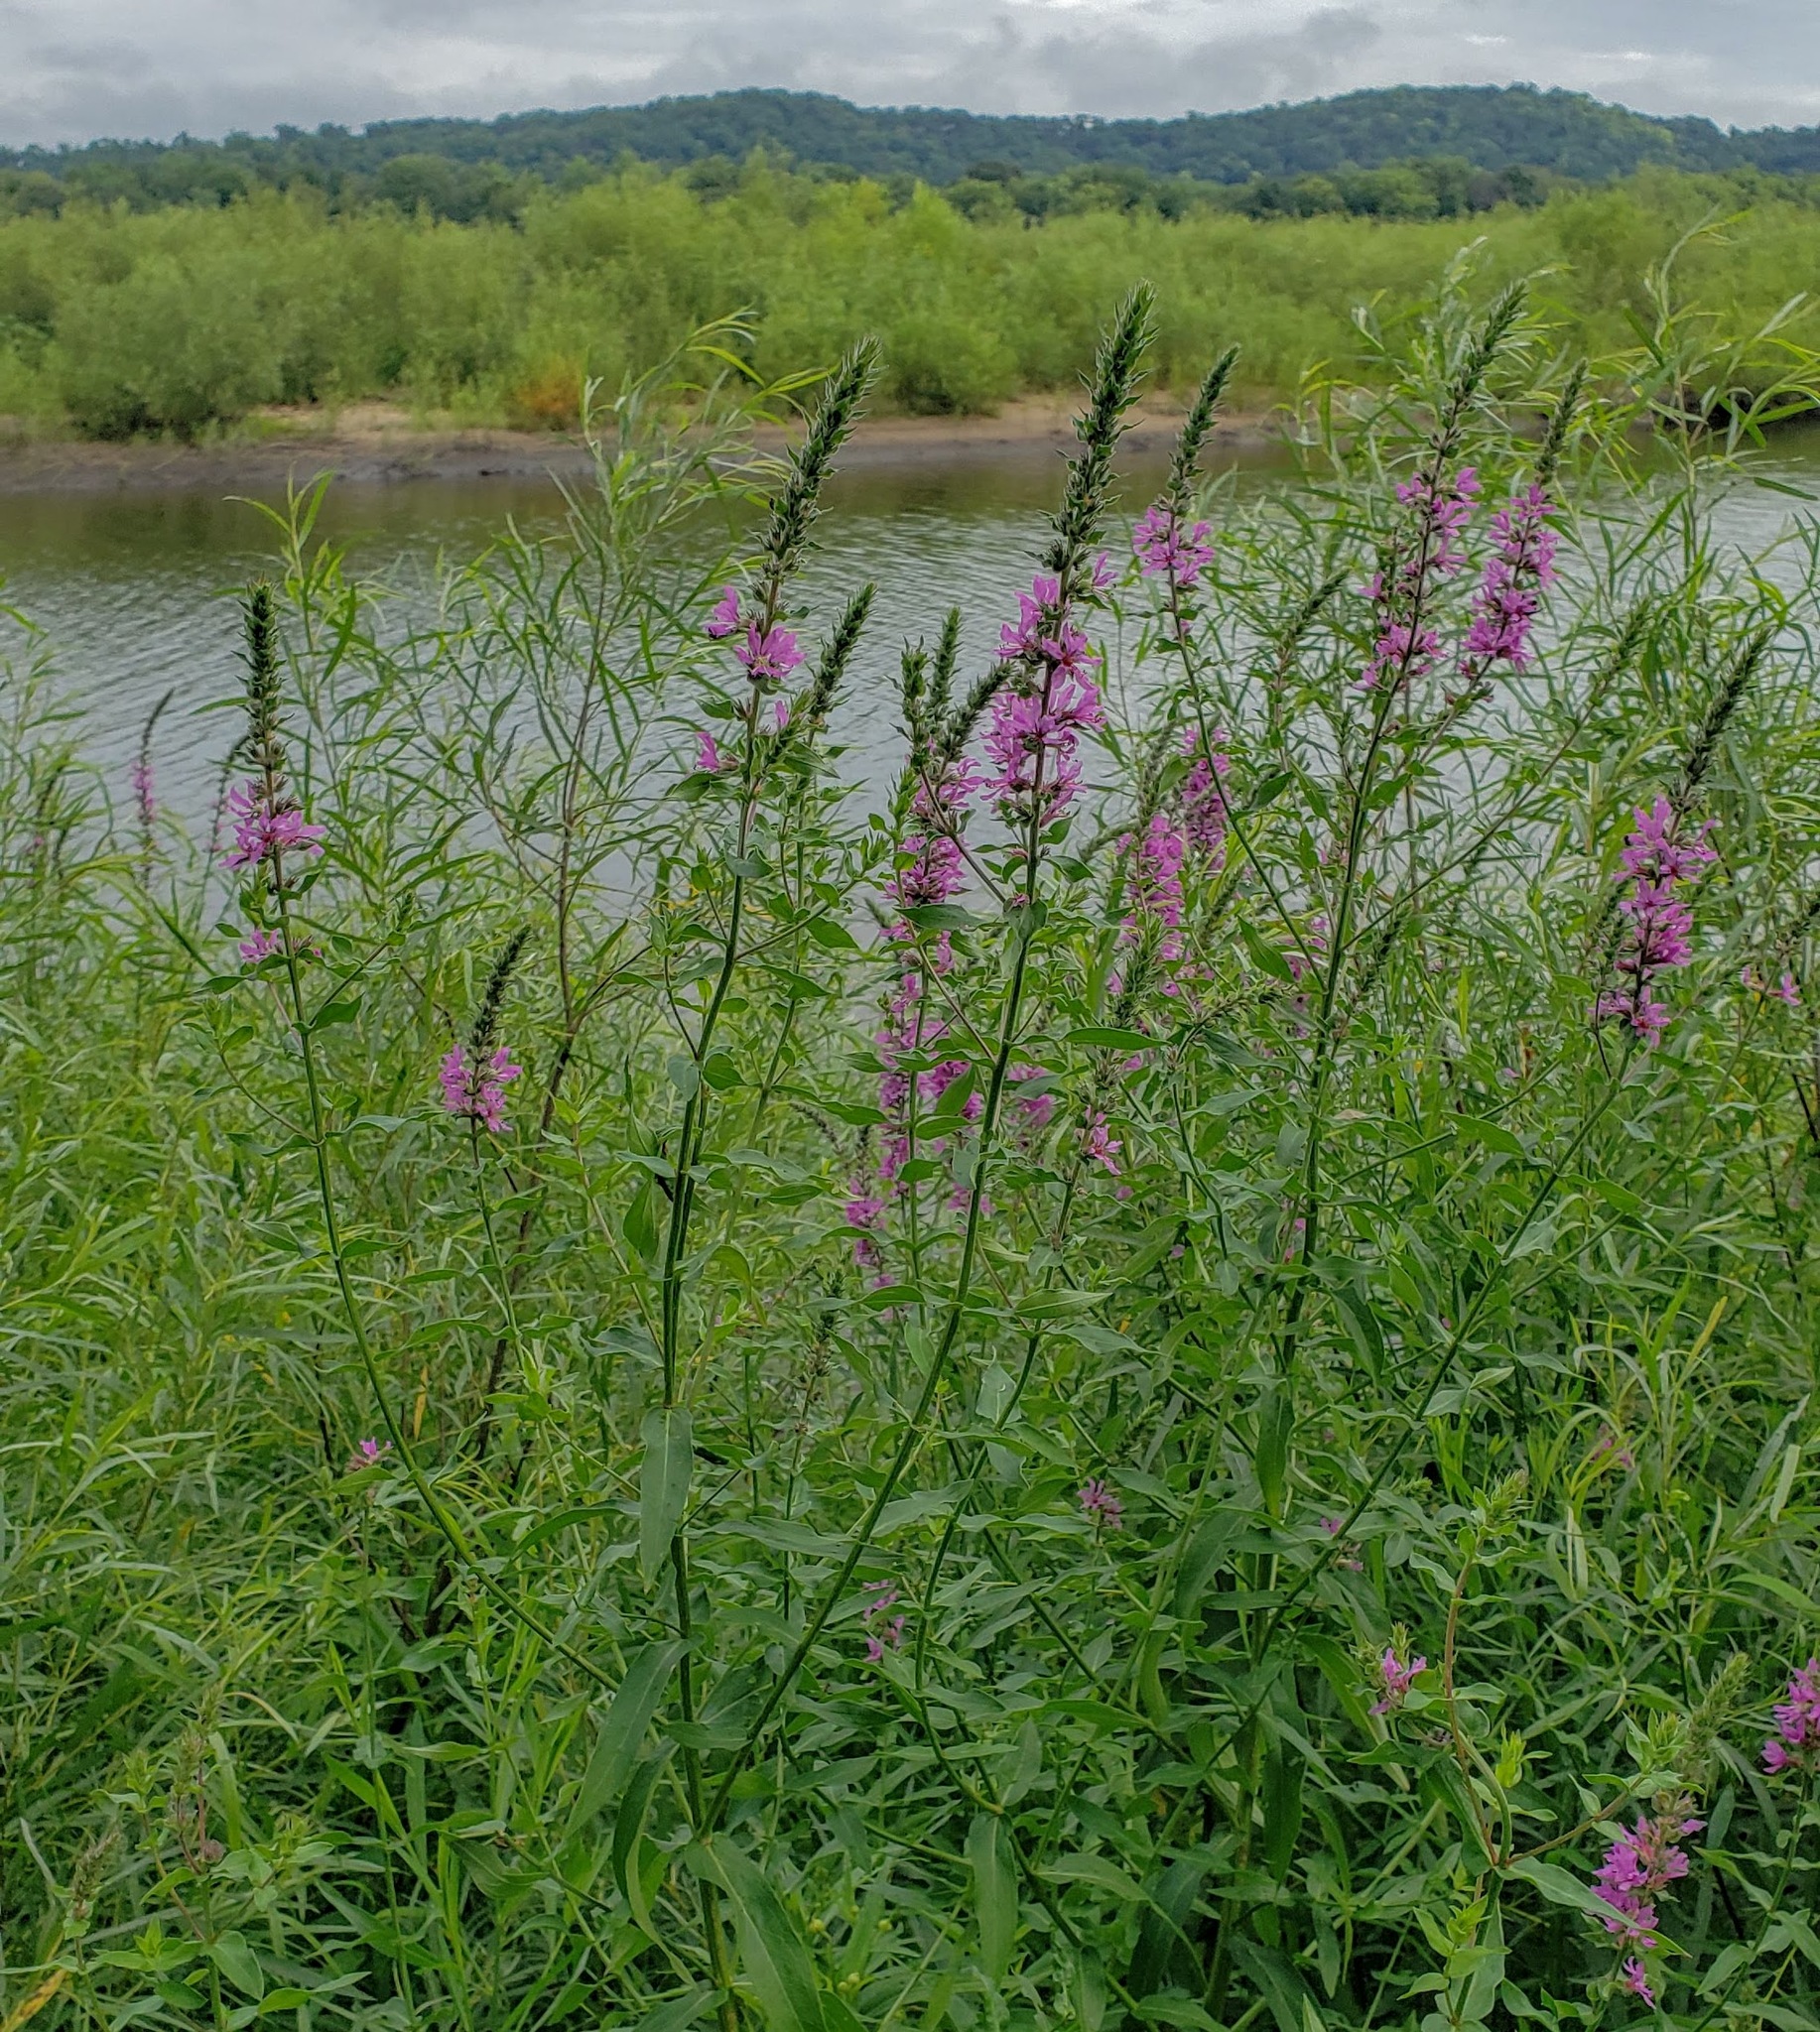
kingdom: Plantae
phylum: Tracheophyta
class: Magnoliopsida
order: Myrtales
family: Lythraceae
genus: Lythrum
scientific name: Lythrum salicaria
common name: Purple loosestrife
